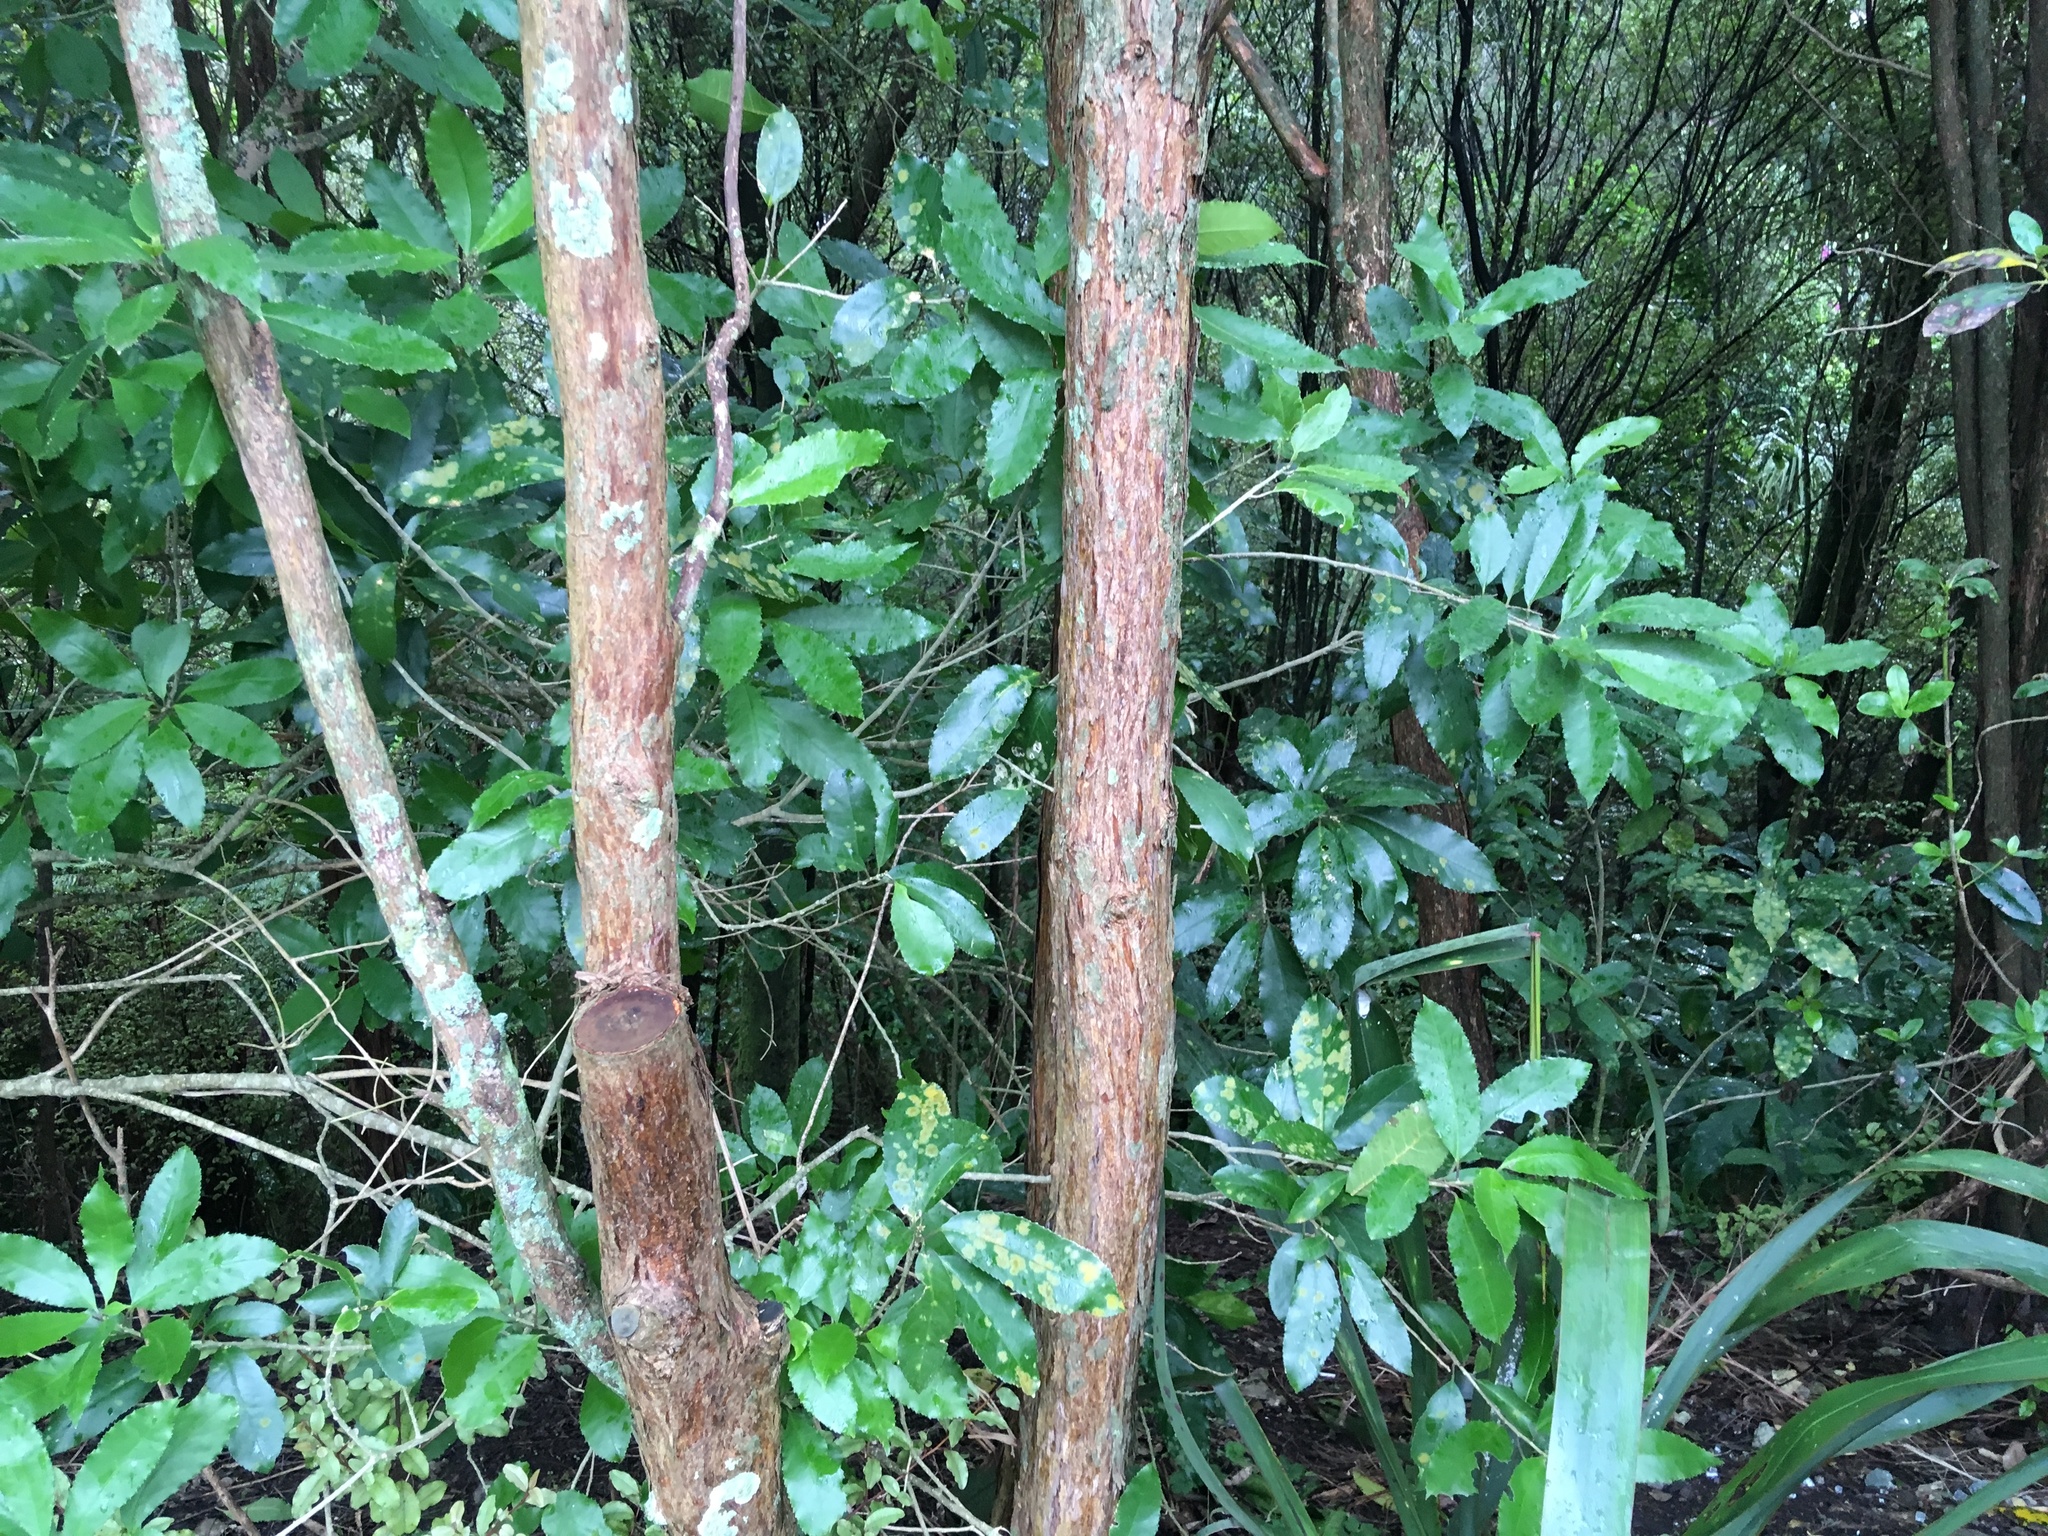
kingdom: Plantae
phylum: Tracheophyta
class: Magnoliopsida
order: Malpighiales
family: Violaceae
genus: Melicytus
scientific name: Melicytus ramiflorus
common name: Mahoe
